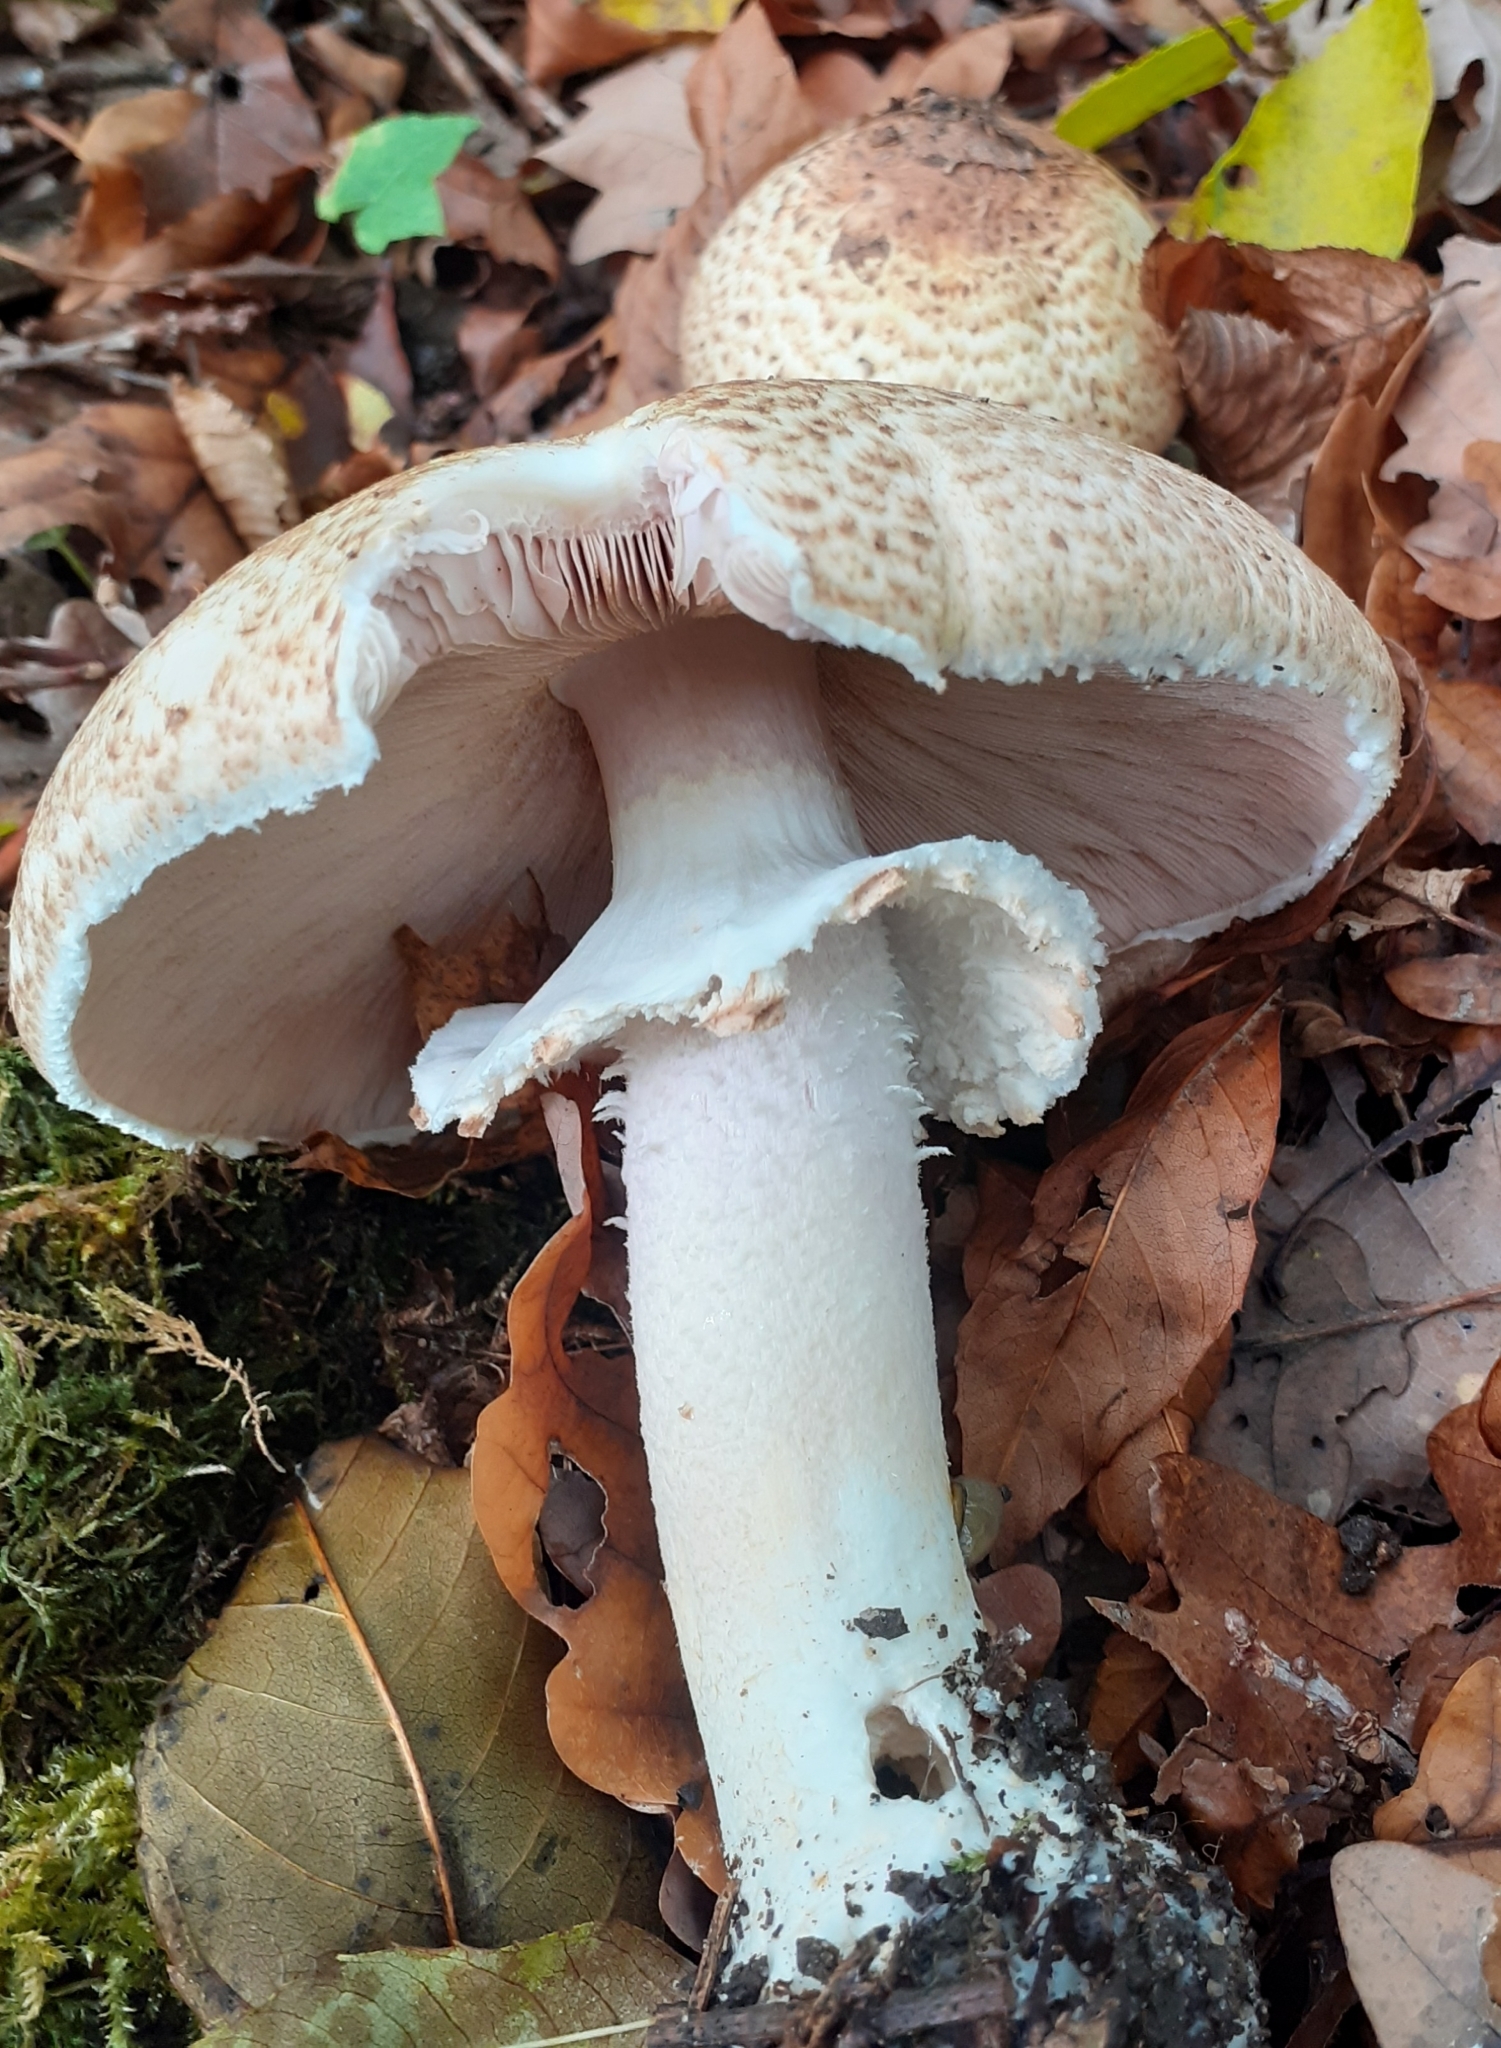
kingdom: Fungi
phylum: Basidiomycota
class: Agaricomycetes
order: Agaricales
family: Agaricaceae
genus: Agaricus
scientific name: Agaricus augustus
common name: Prince
